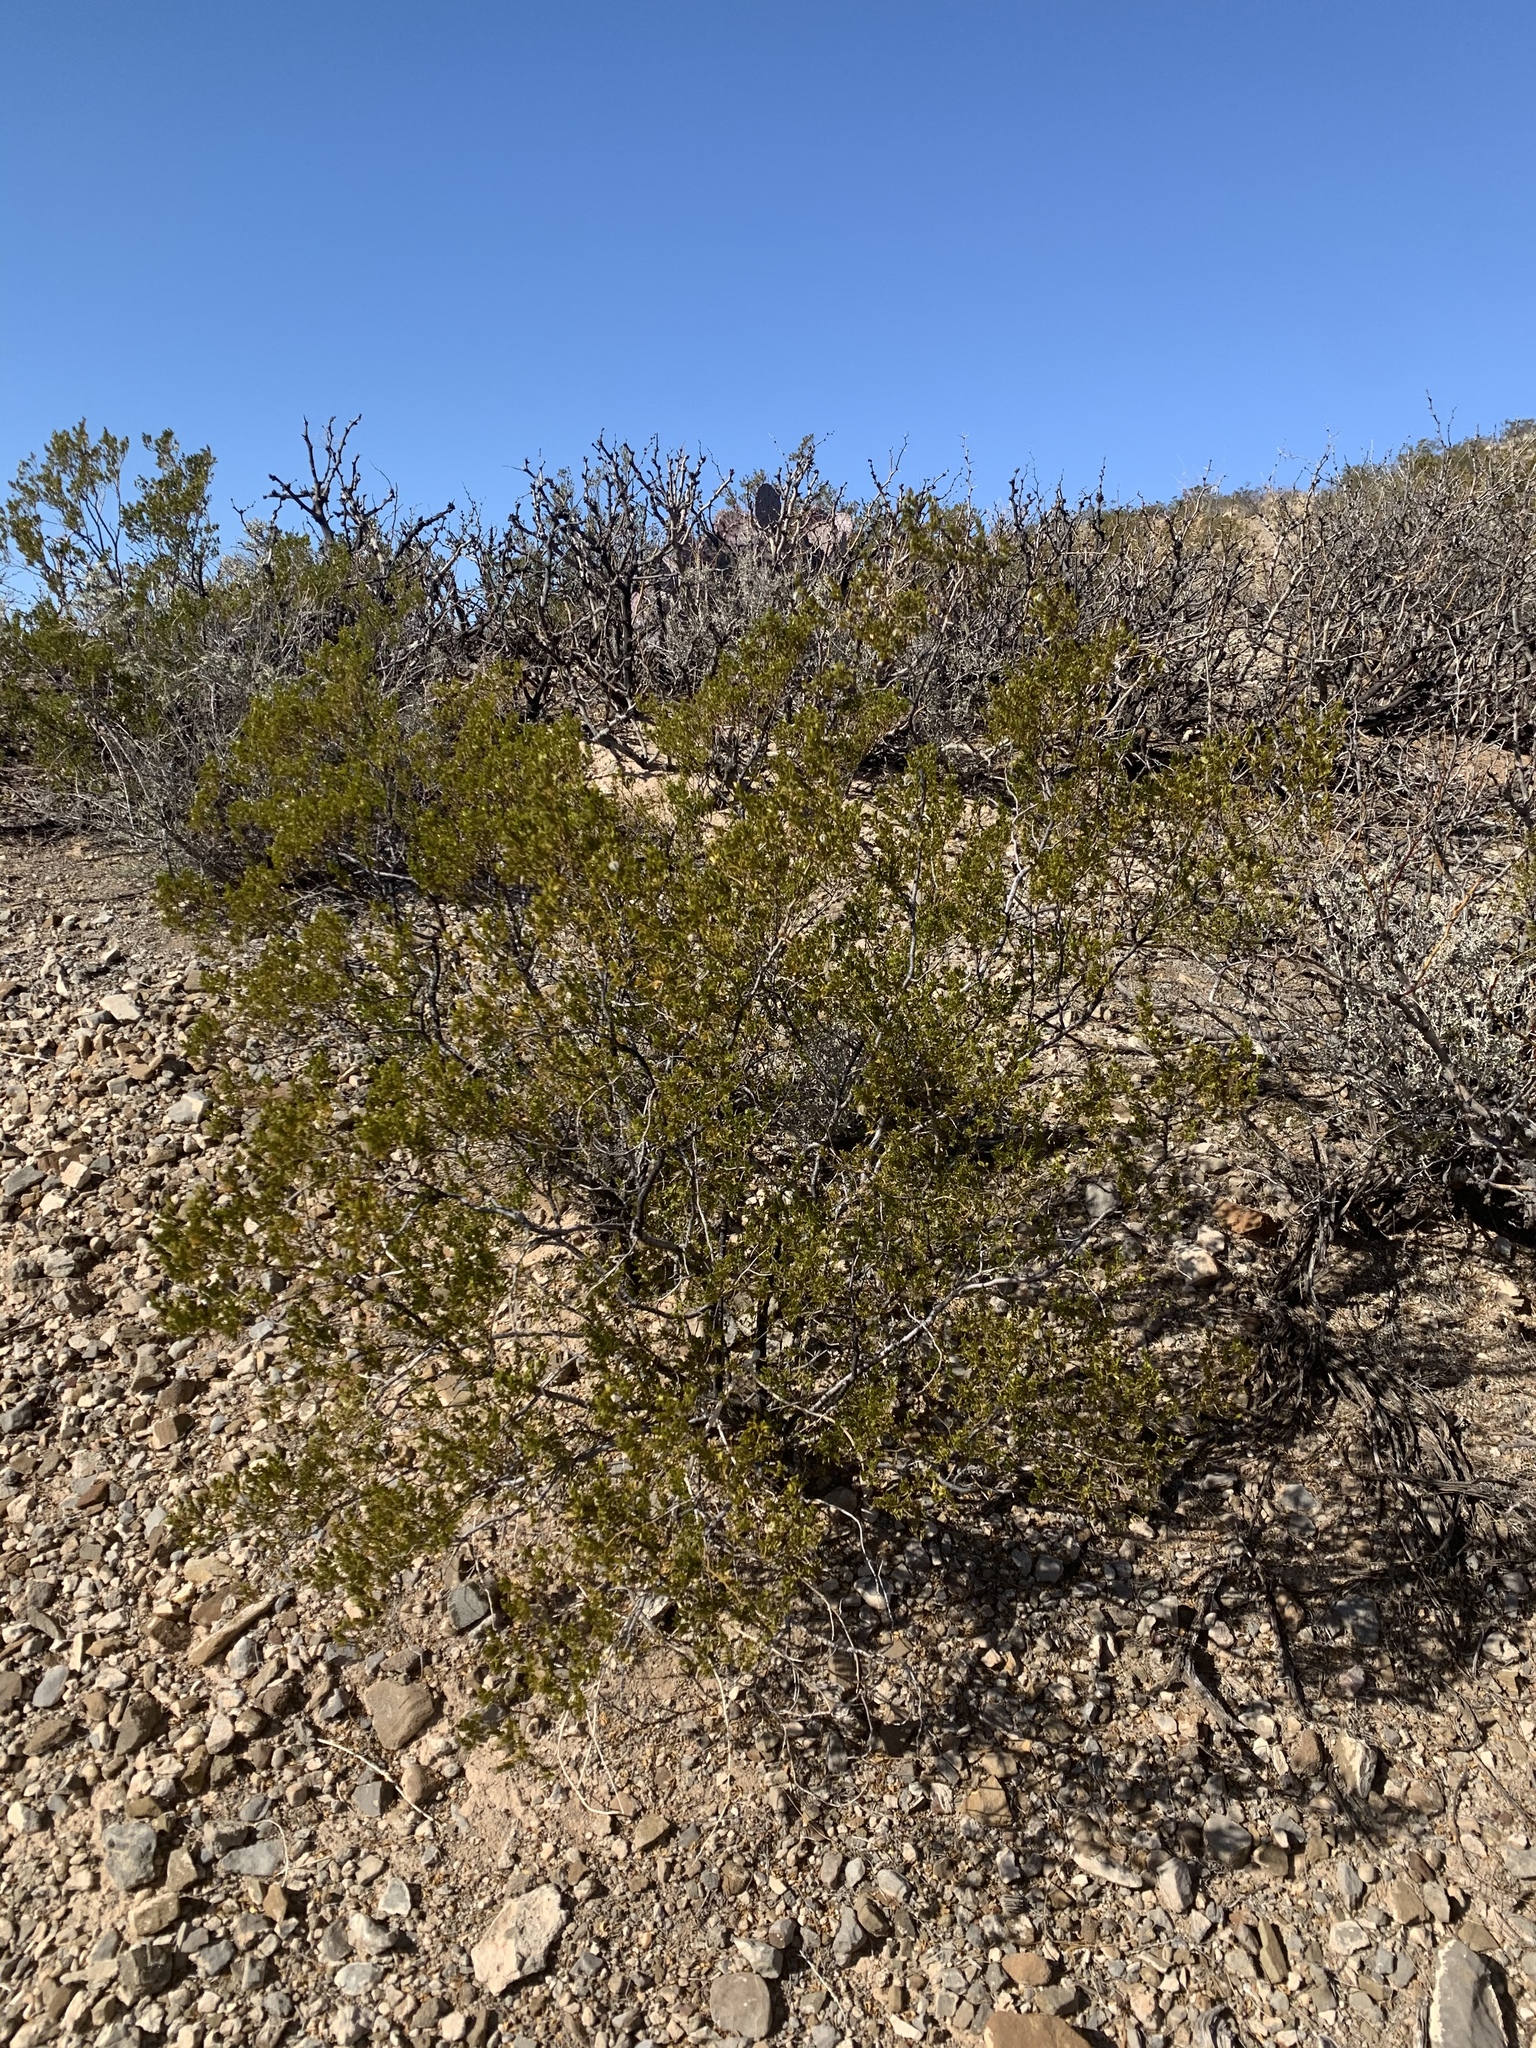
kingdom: Plantae
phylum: Tracheophyta
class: Magnoliopsida
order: Zygophyllales
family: Zygophyllaceae
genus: Larrea
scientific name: Larrea tridentata
